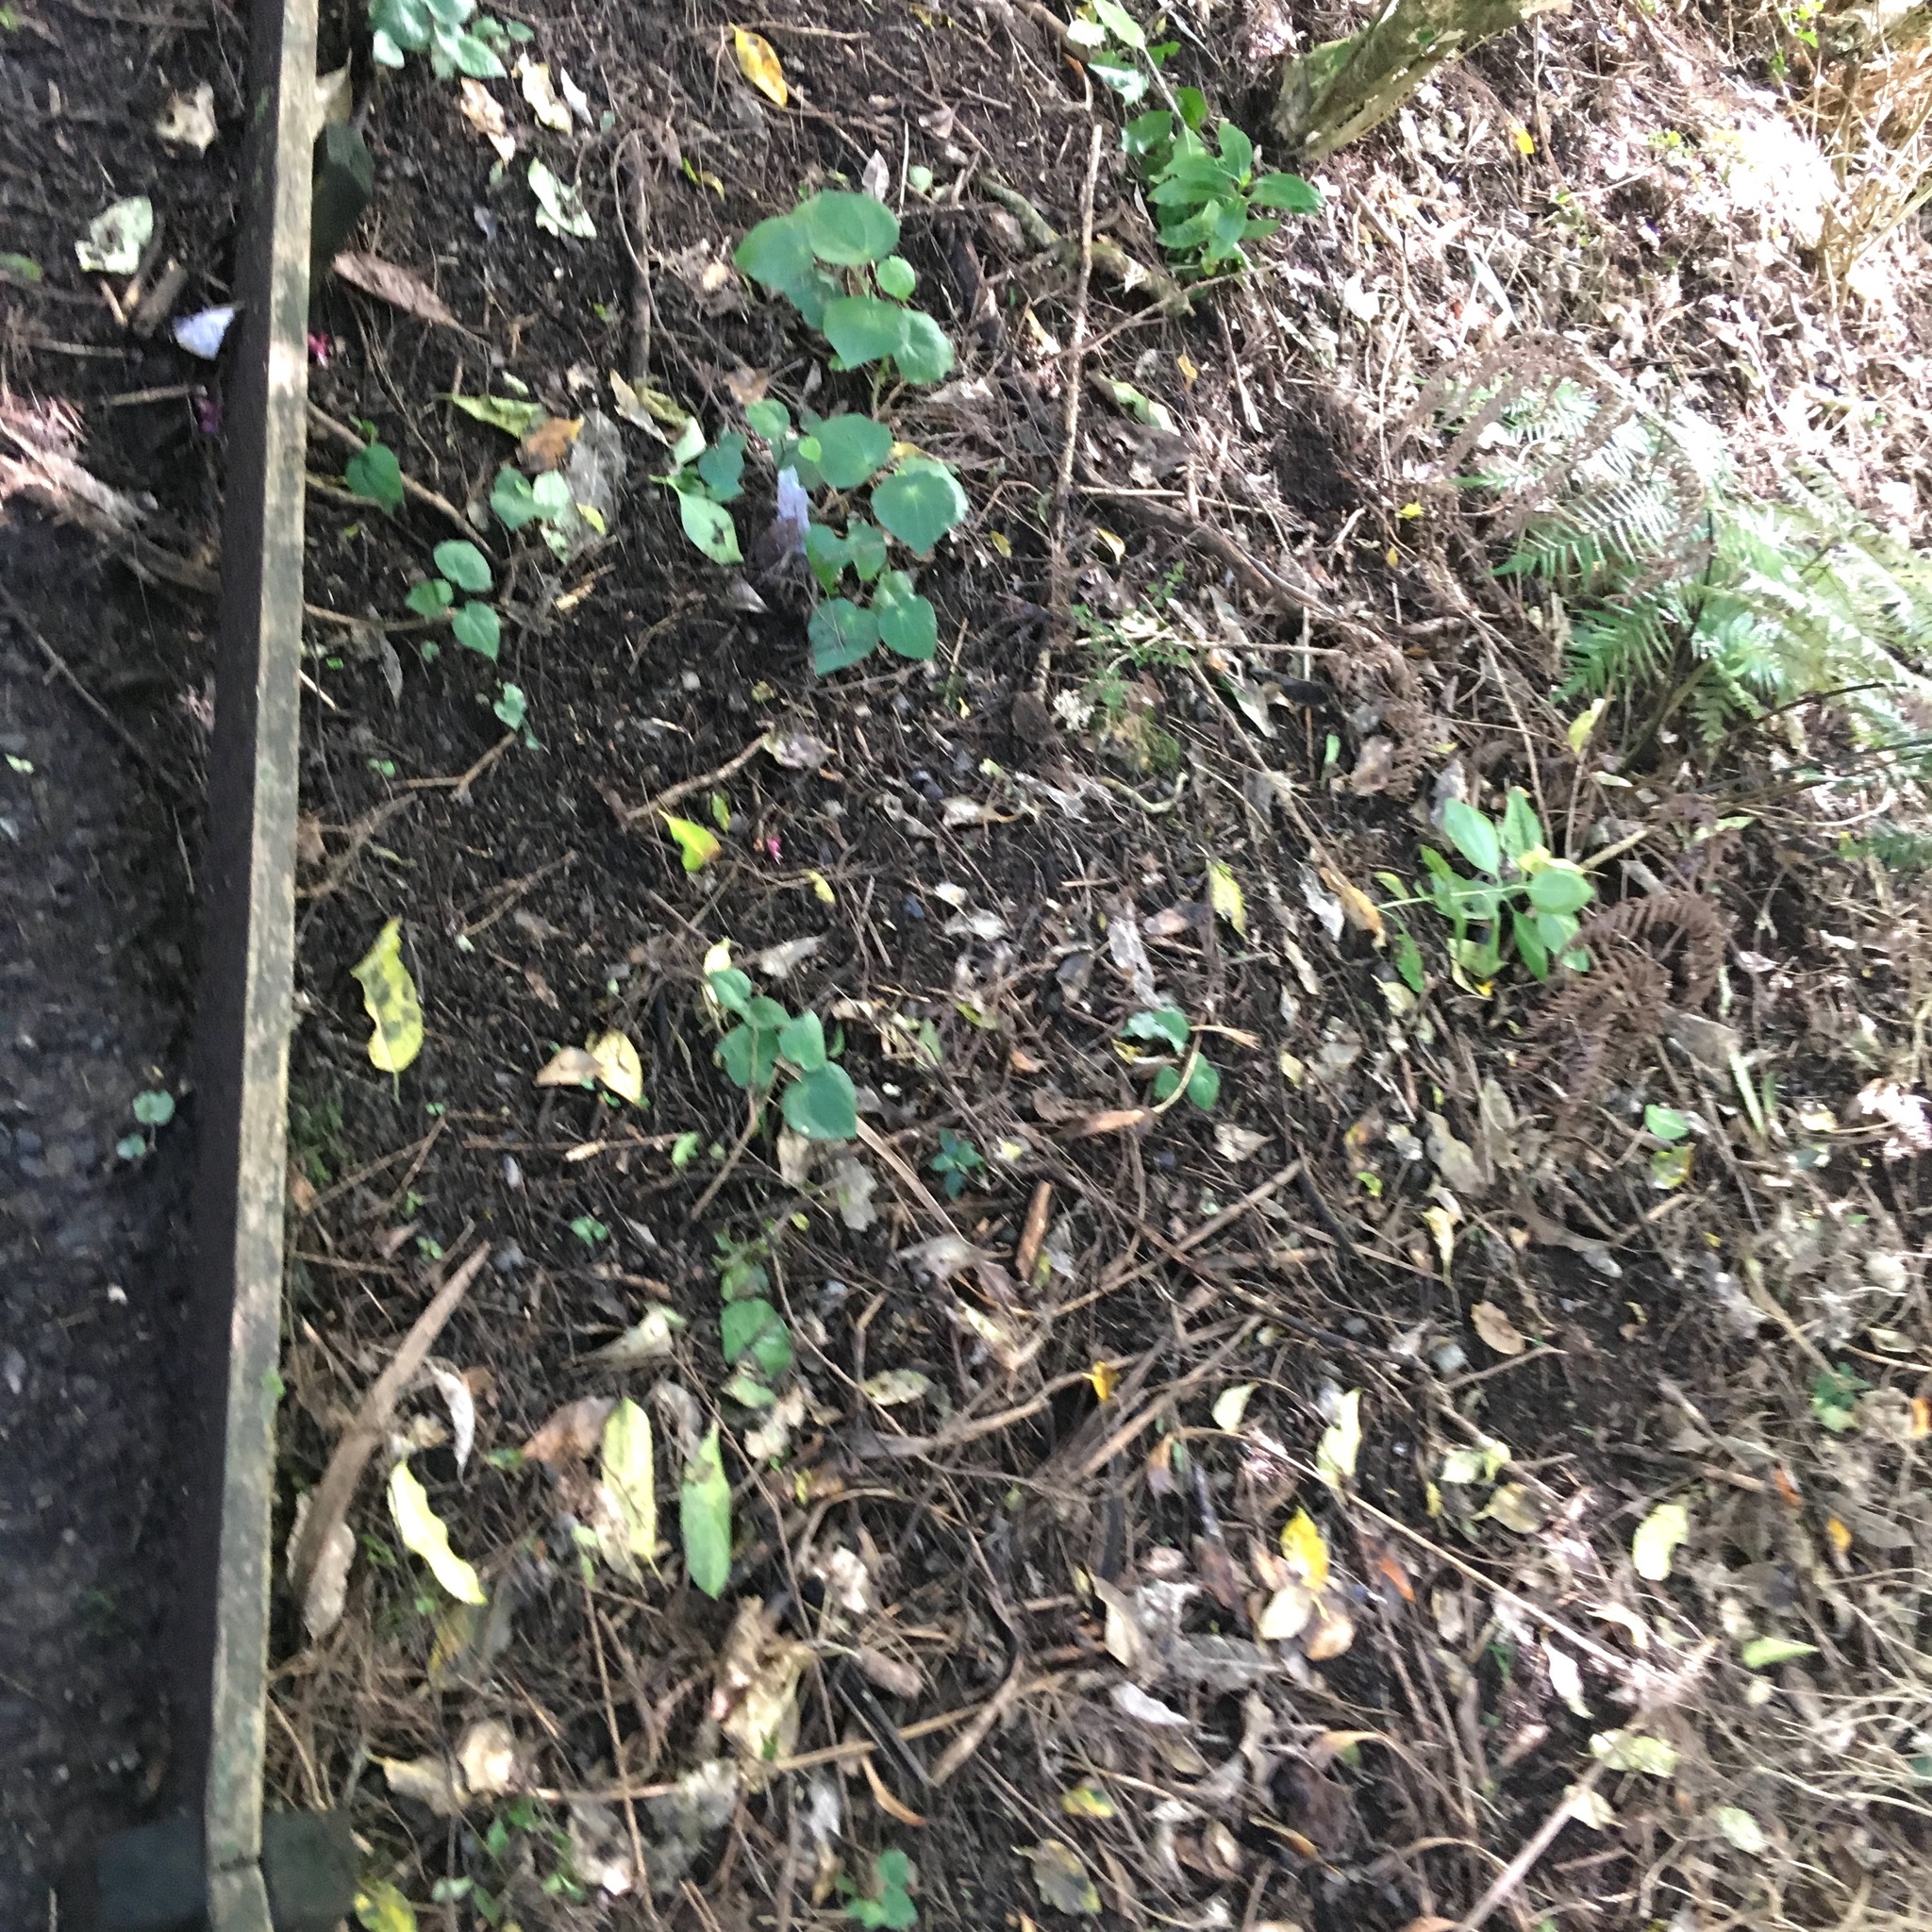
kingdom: Plantae
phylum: Tracheophyta
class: Magnoliopsida
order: Piperales
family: Piperaceae
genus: Macropiper
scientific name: Macropiper excelsum
